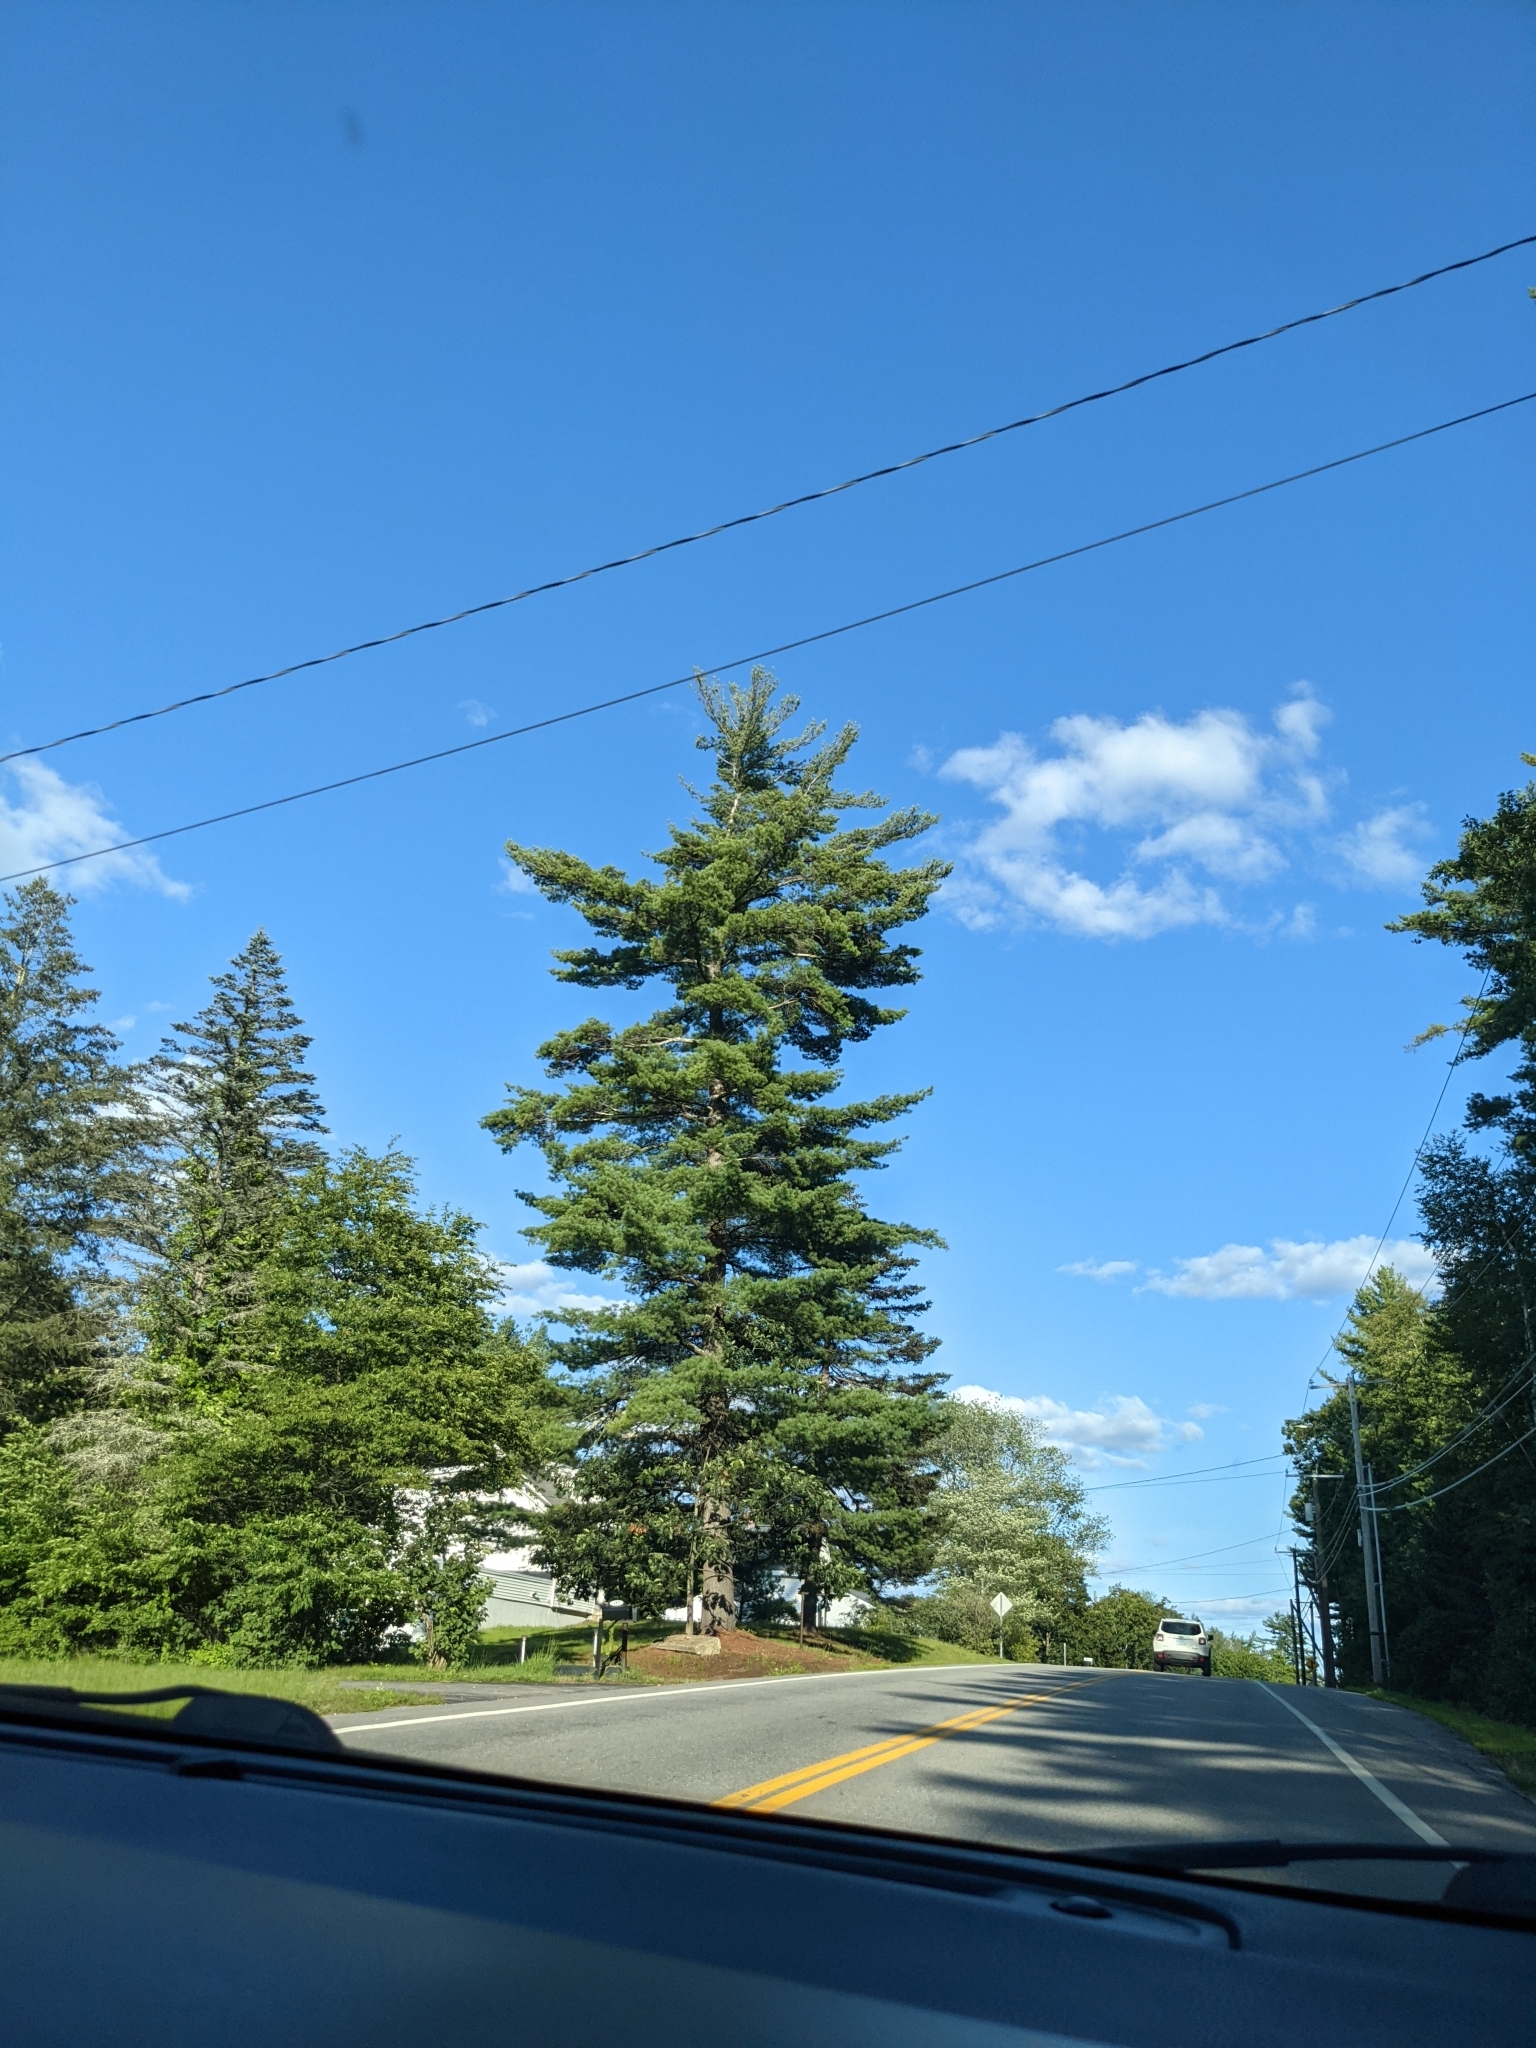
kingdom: Plantae
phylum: Tracheophyta
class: Pinopsida
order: Pinales
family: Pinaceae
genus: Pinus
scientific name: Pinus strobus
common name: Weymouth pine
